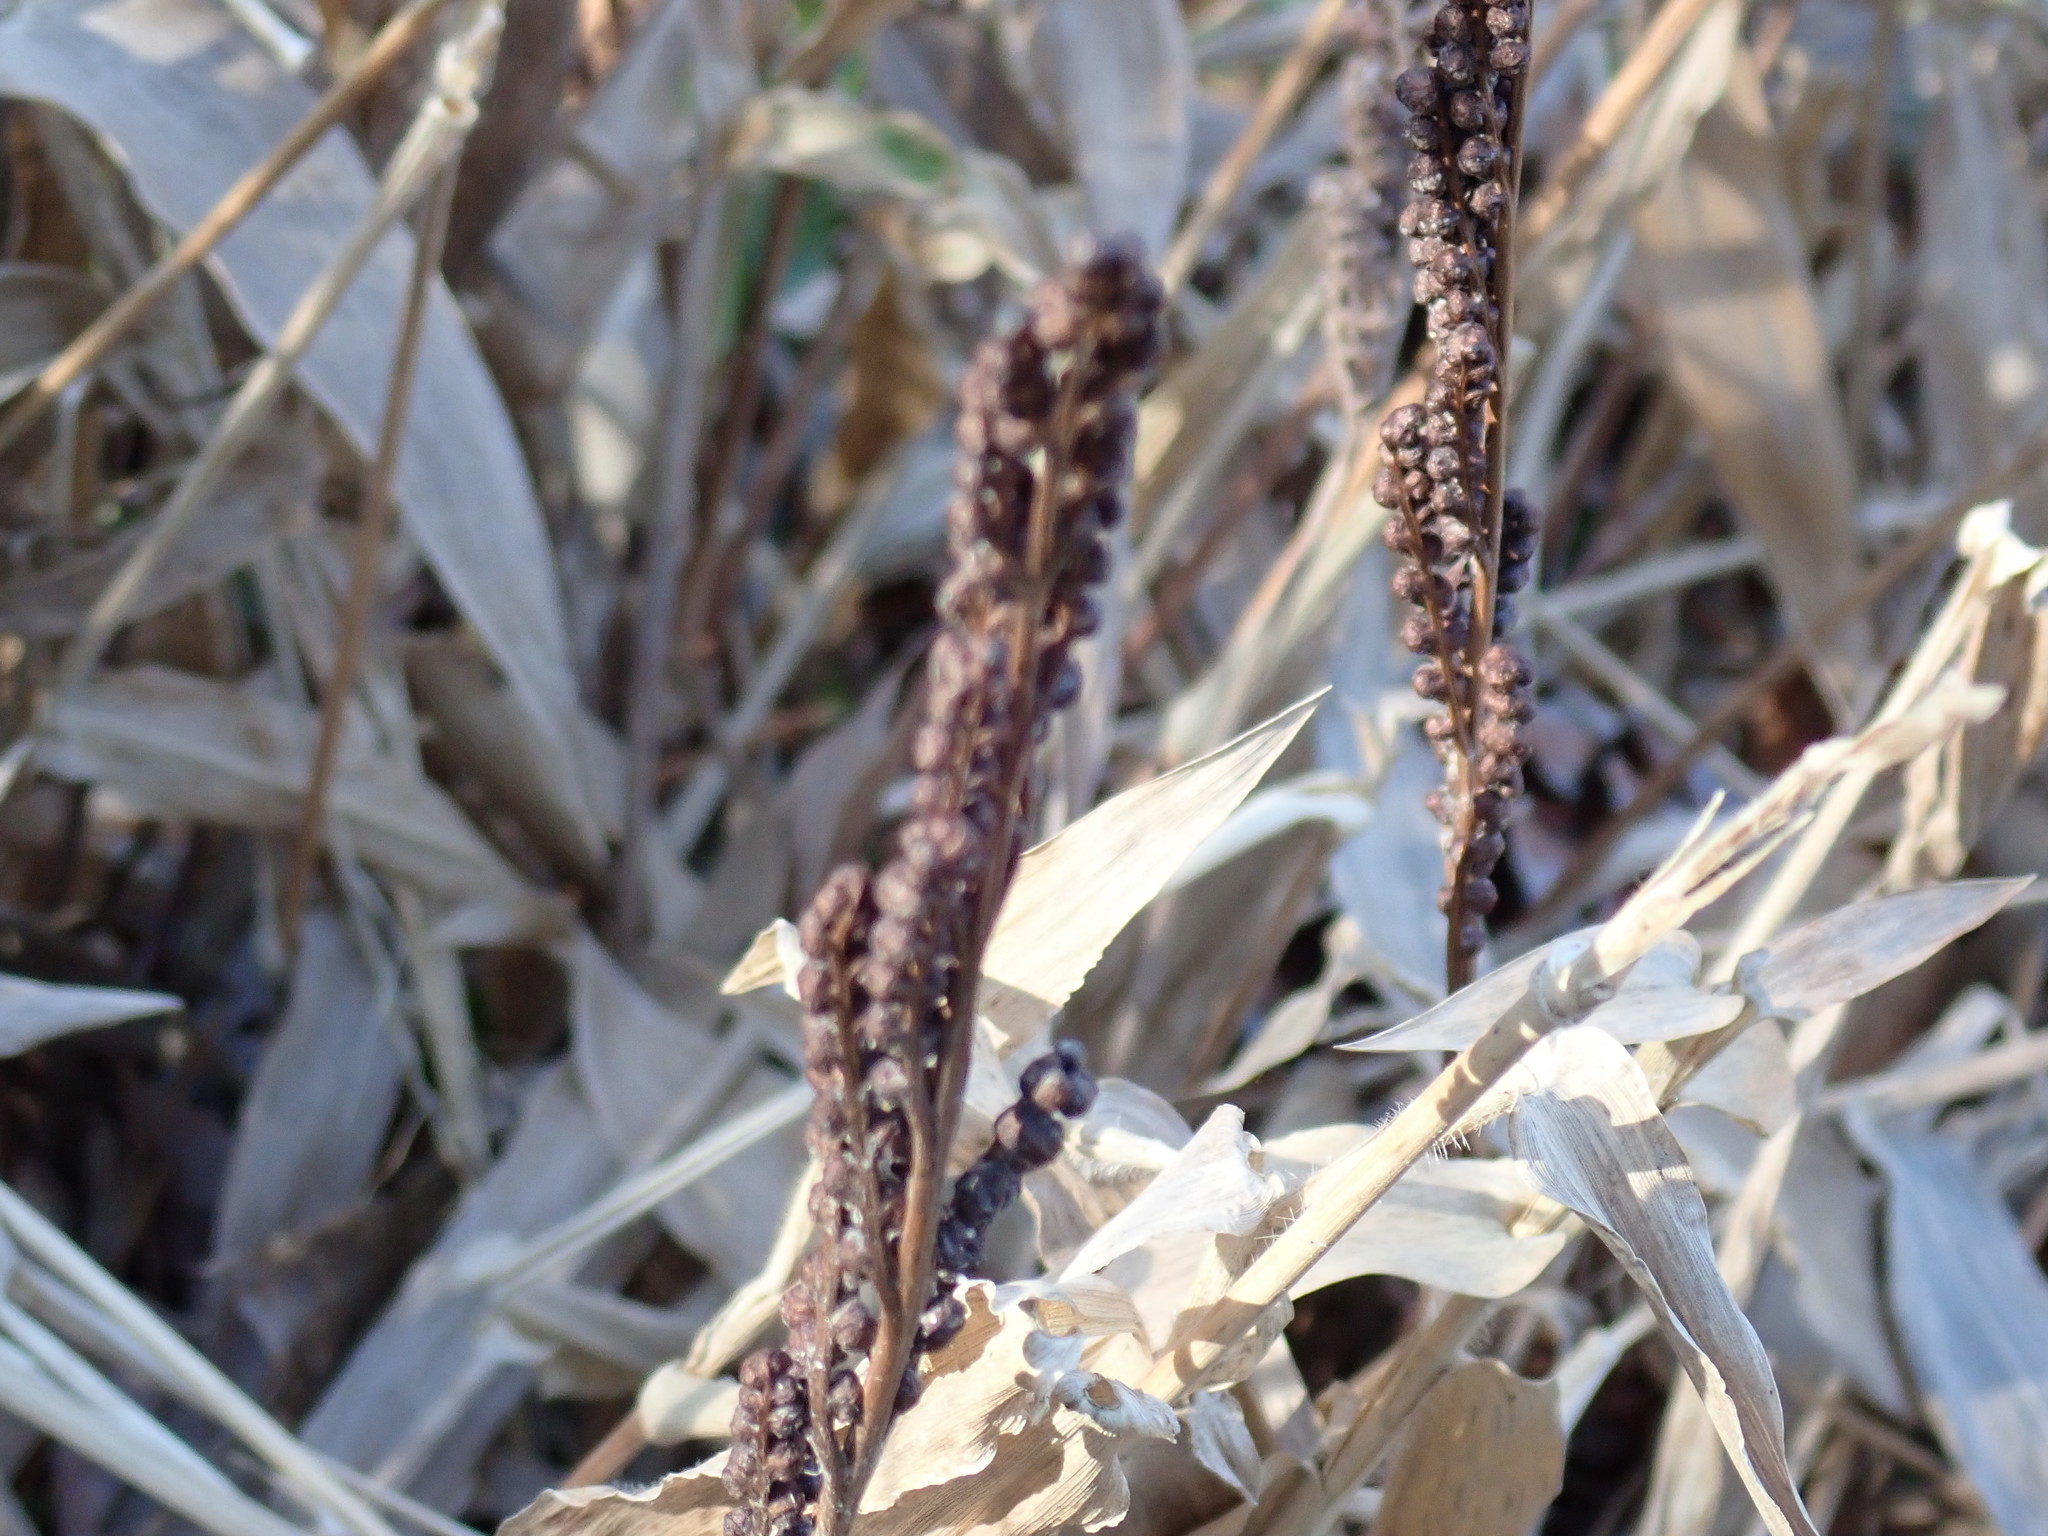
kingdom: Plantae
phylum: Tracheophyta
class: Polypodiopsida
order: Polypodiales
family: Onocleaceae
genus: Onoclea
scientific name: Onoclea sensibilis
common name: Sensitive fern
